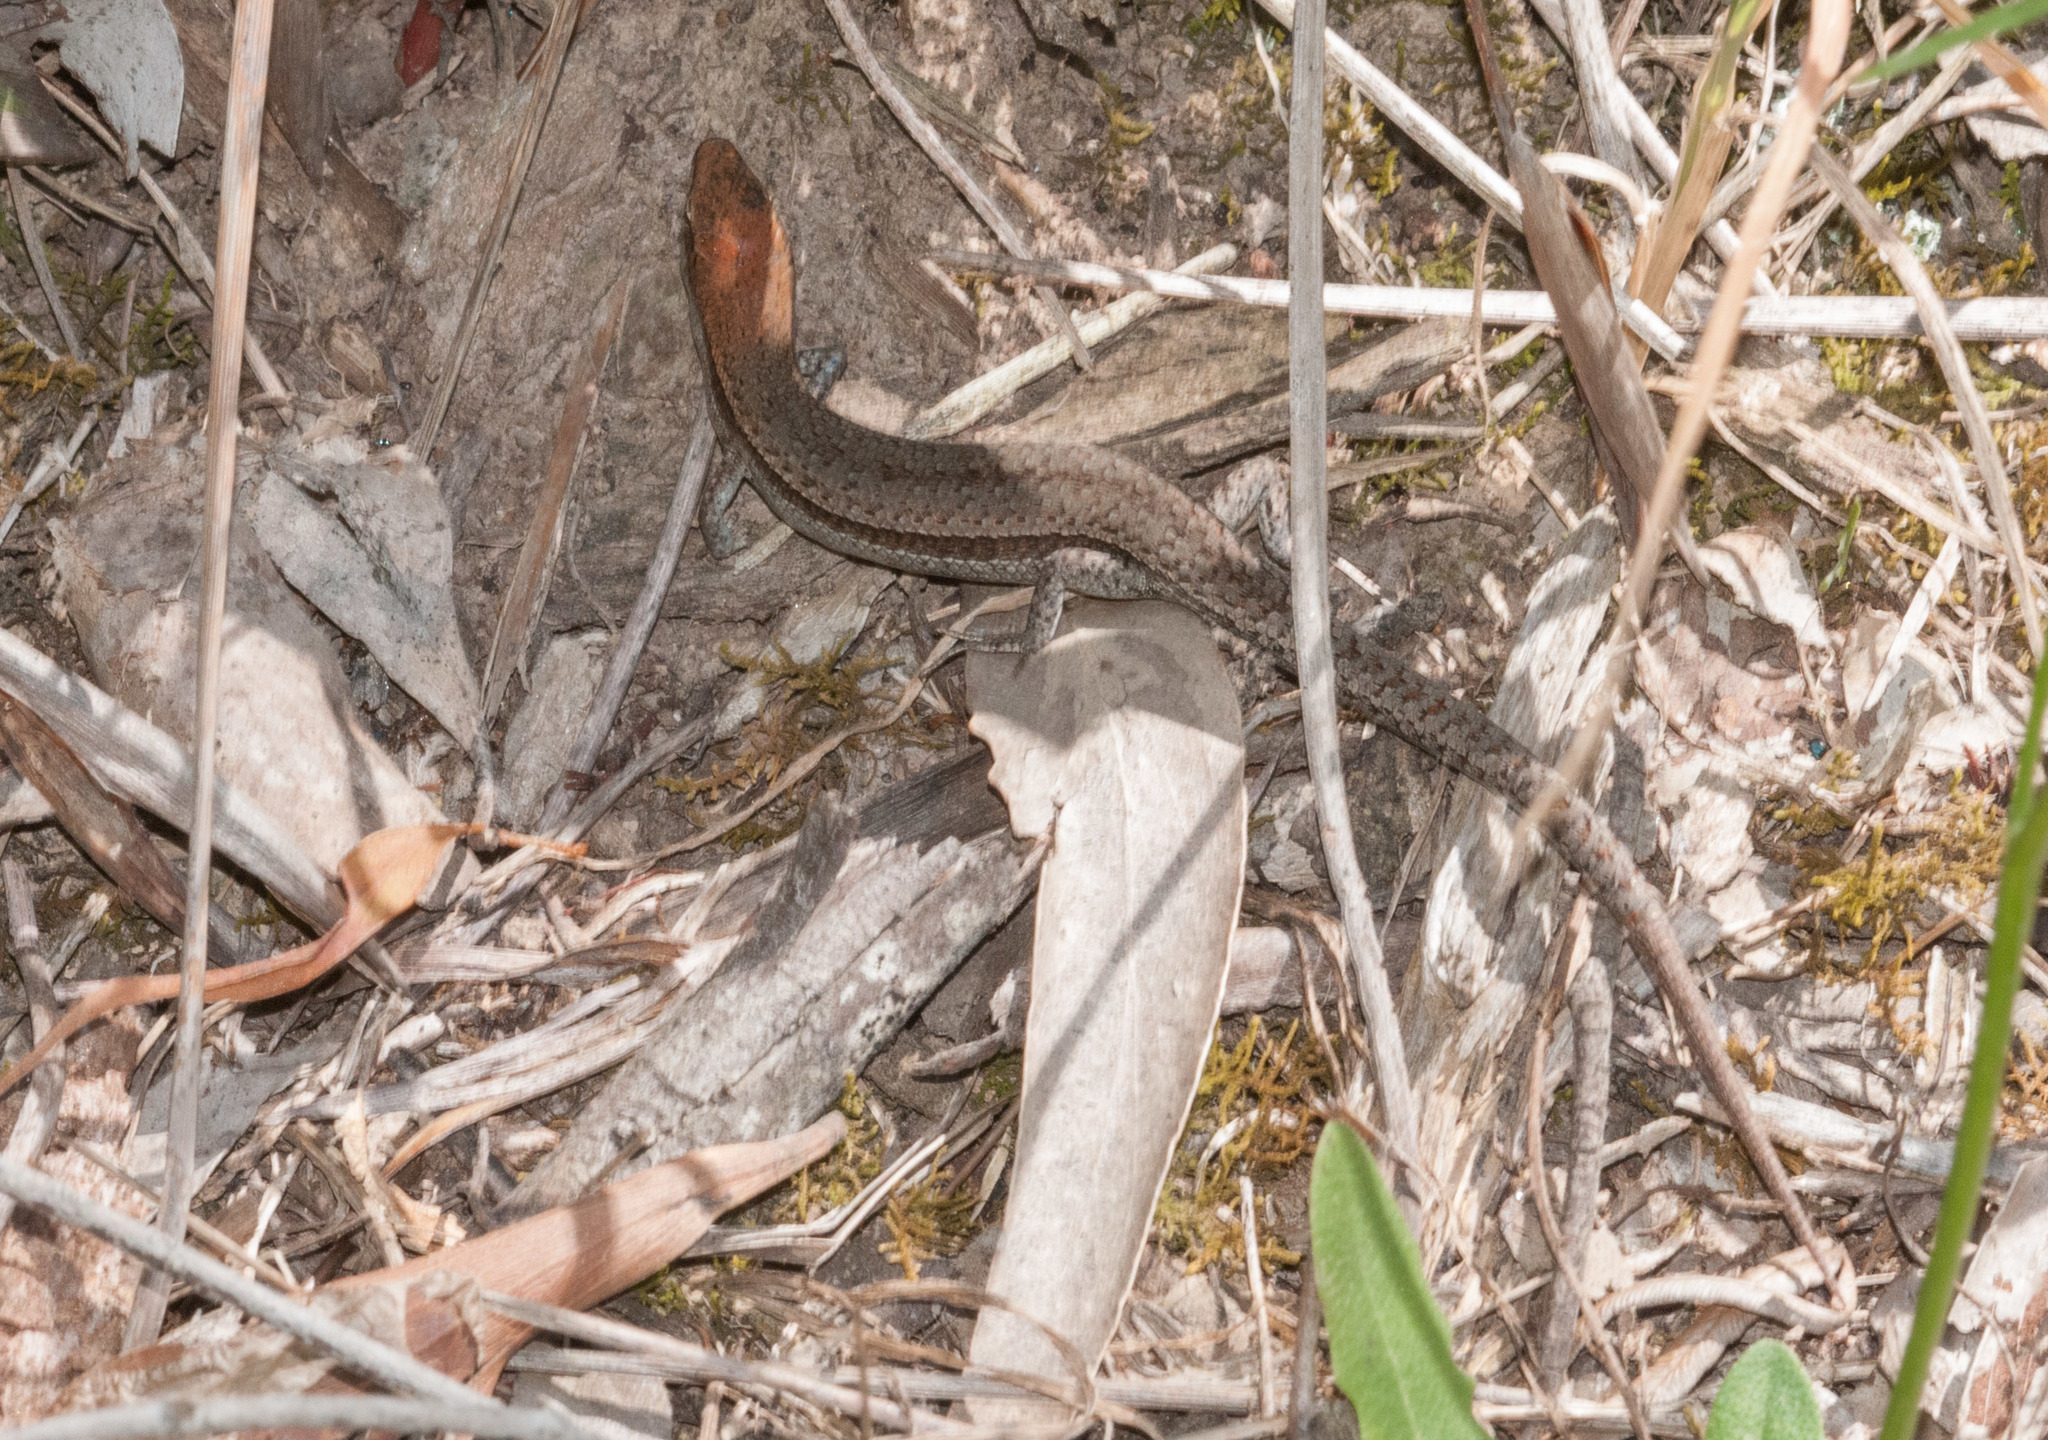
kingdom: Animalia
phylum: Chordata
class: Squamata
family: Scincidae
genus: Lampropholis
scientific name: Lampropholis guichenoti
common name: Garden skink
